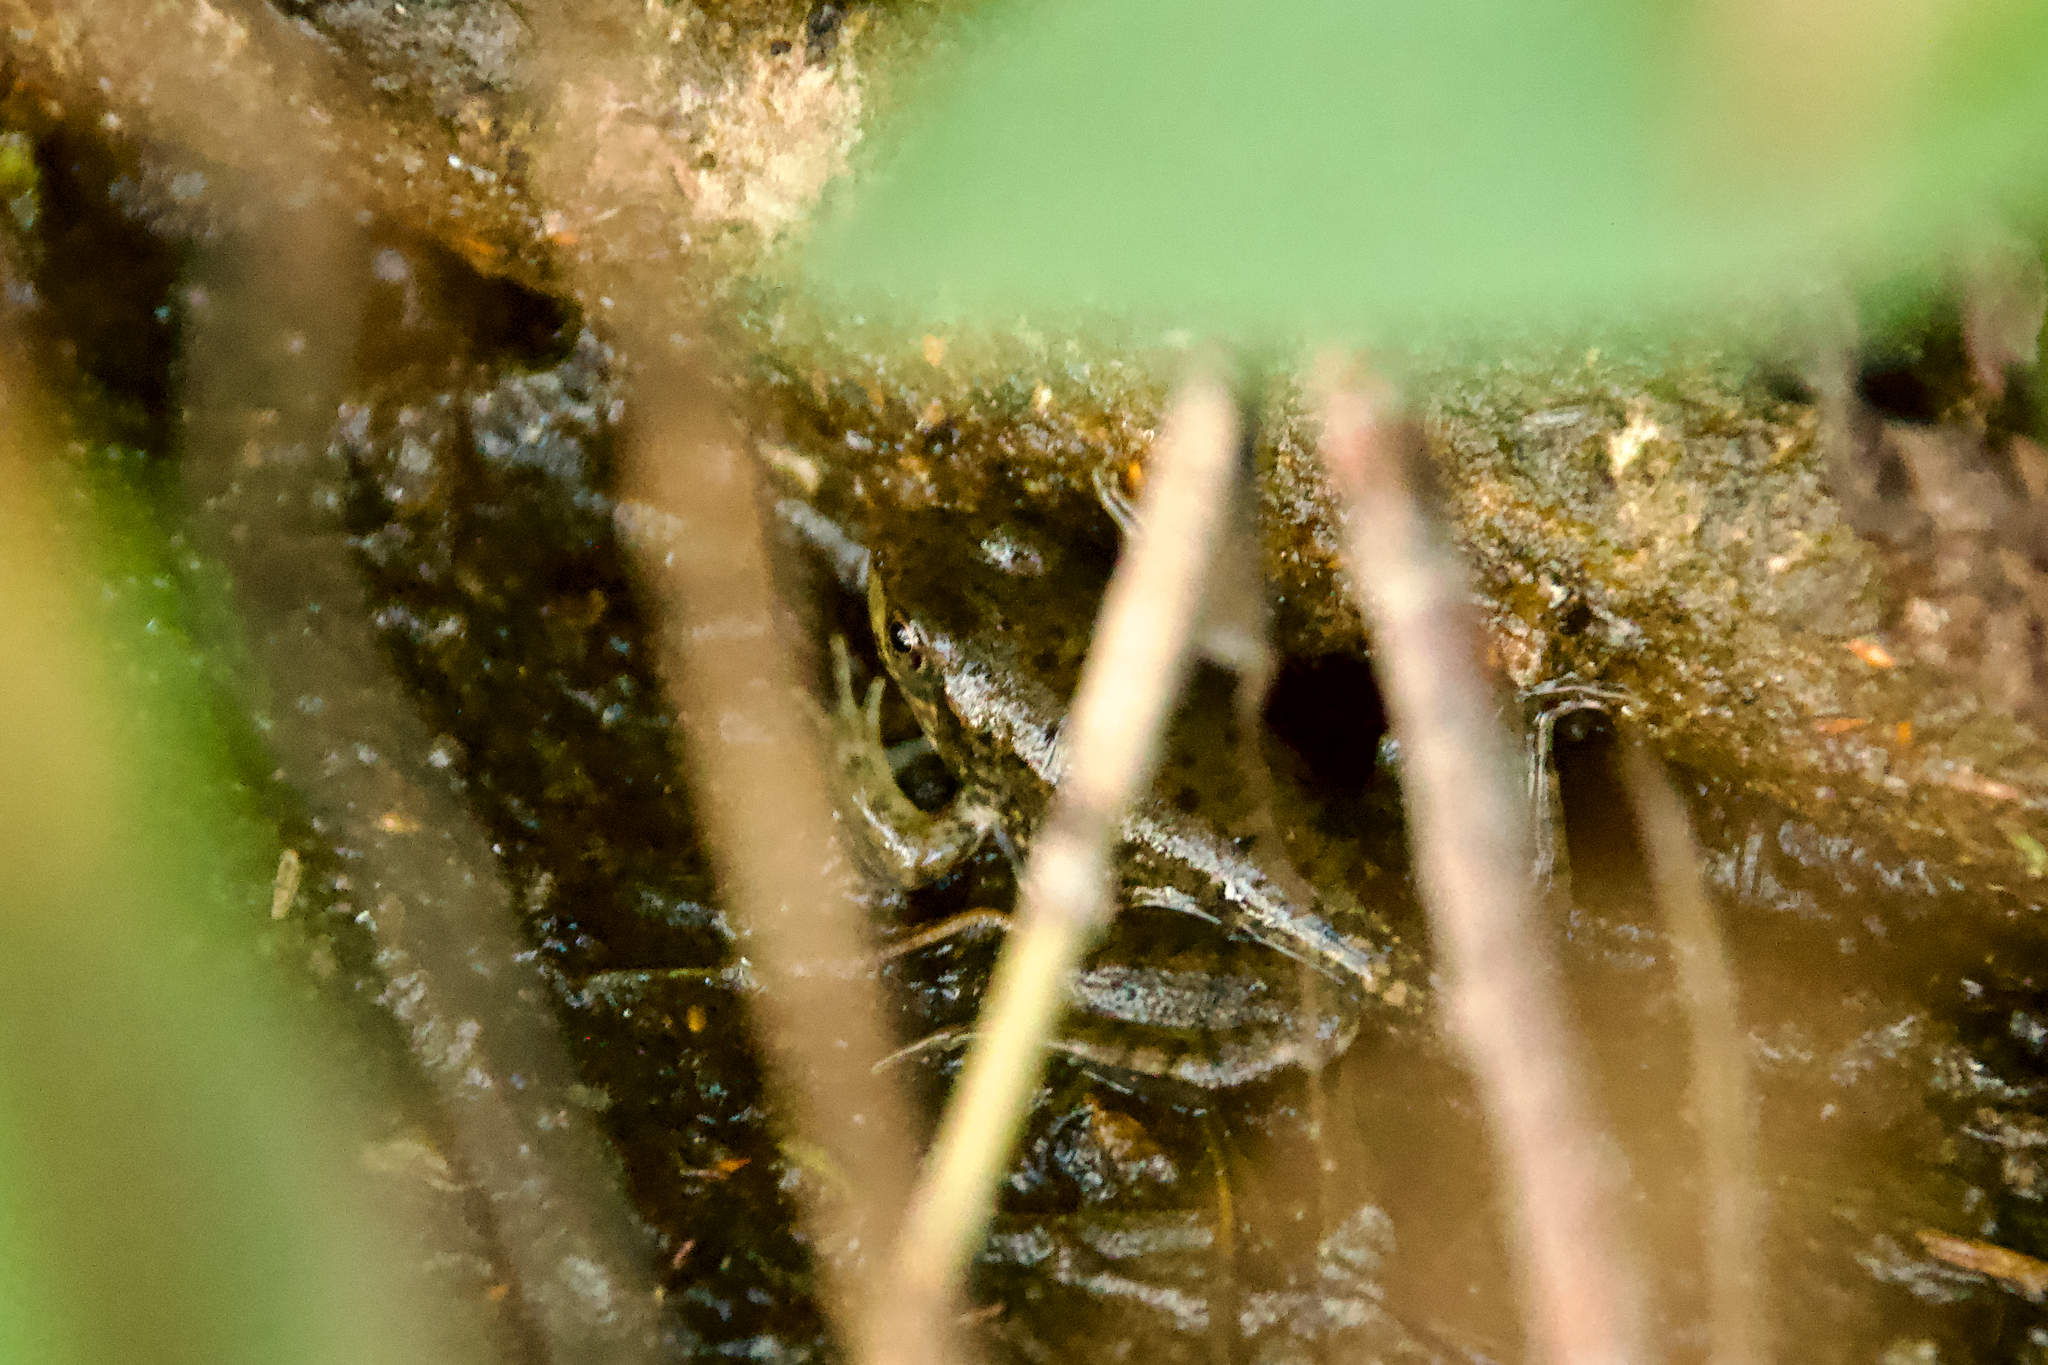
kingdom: Animalia
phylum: Chordata
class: Amphibia
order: Anura
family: Ranidae
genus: Lithobates
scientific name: Lithobates clamitans
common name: Green frog
